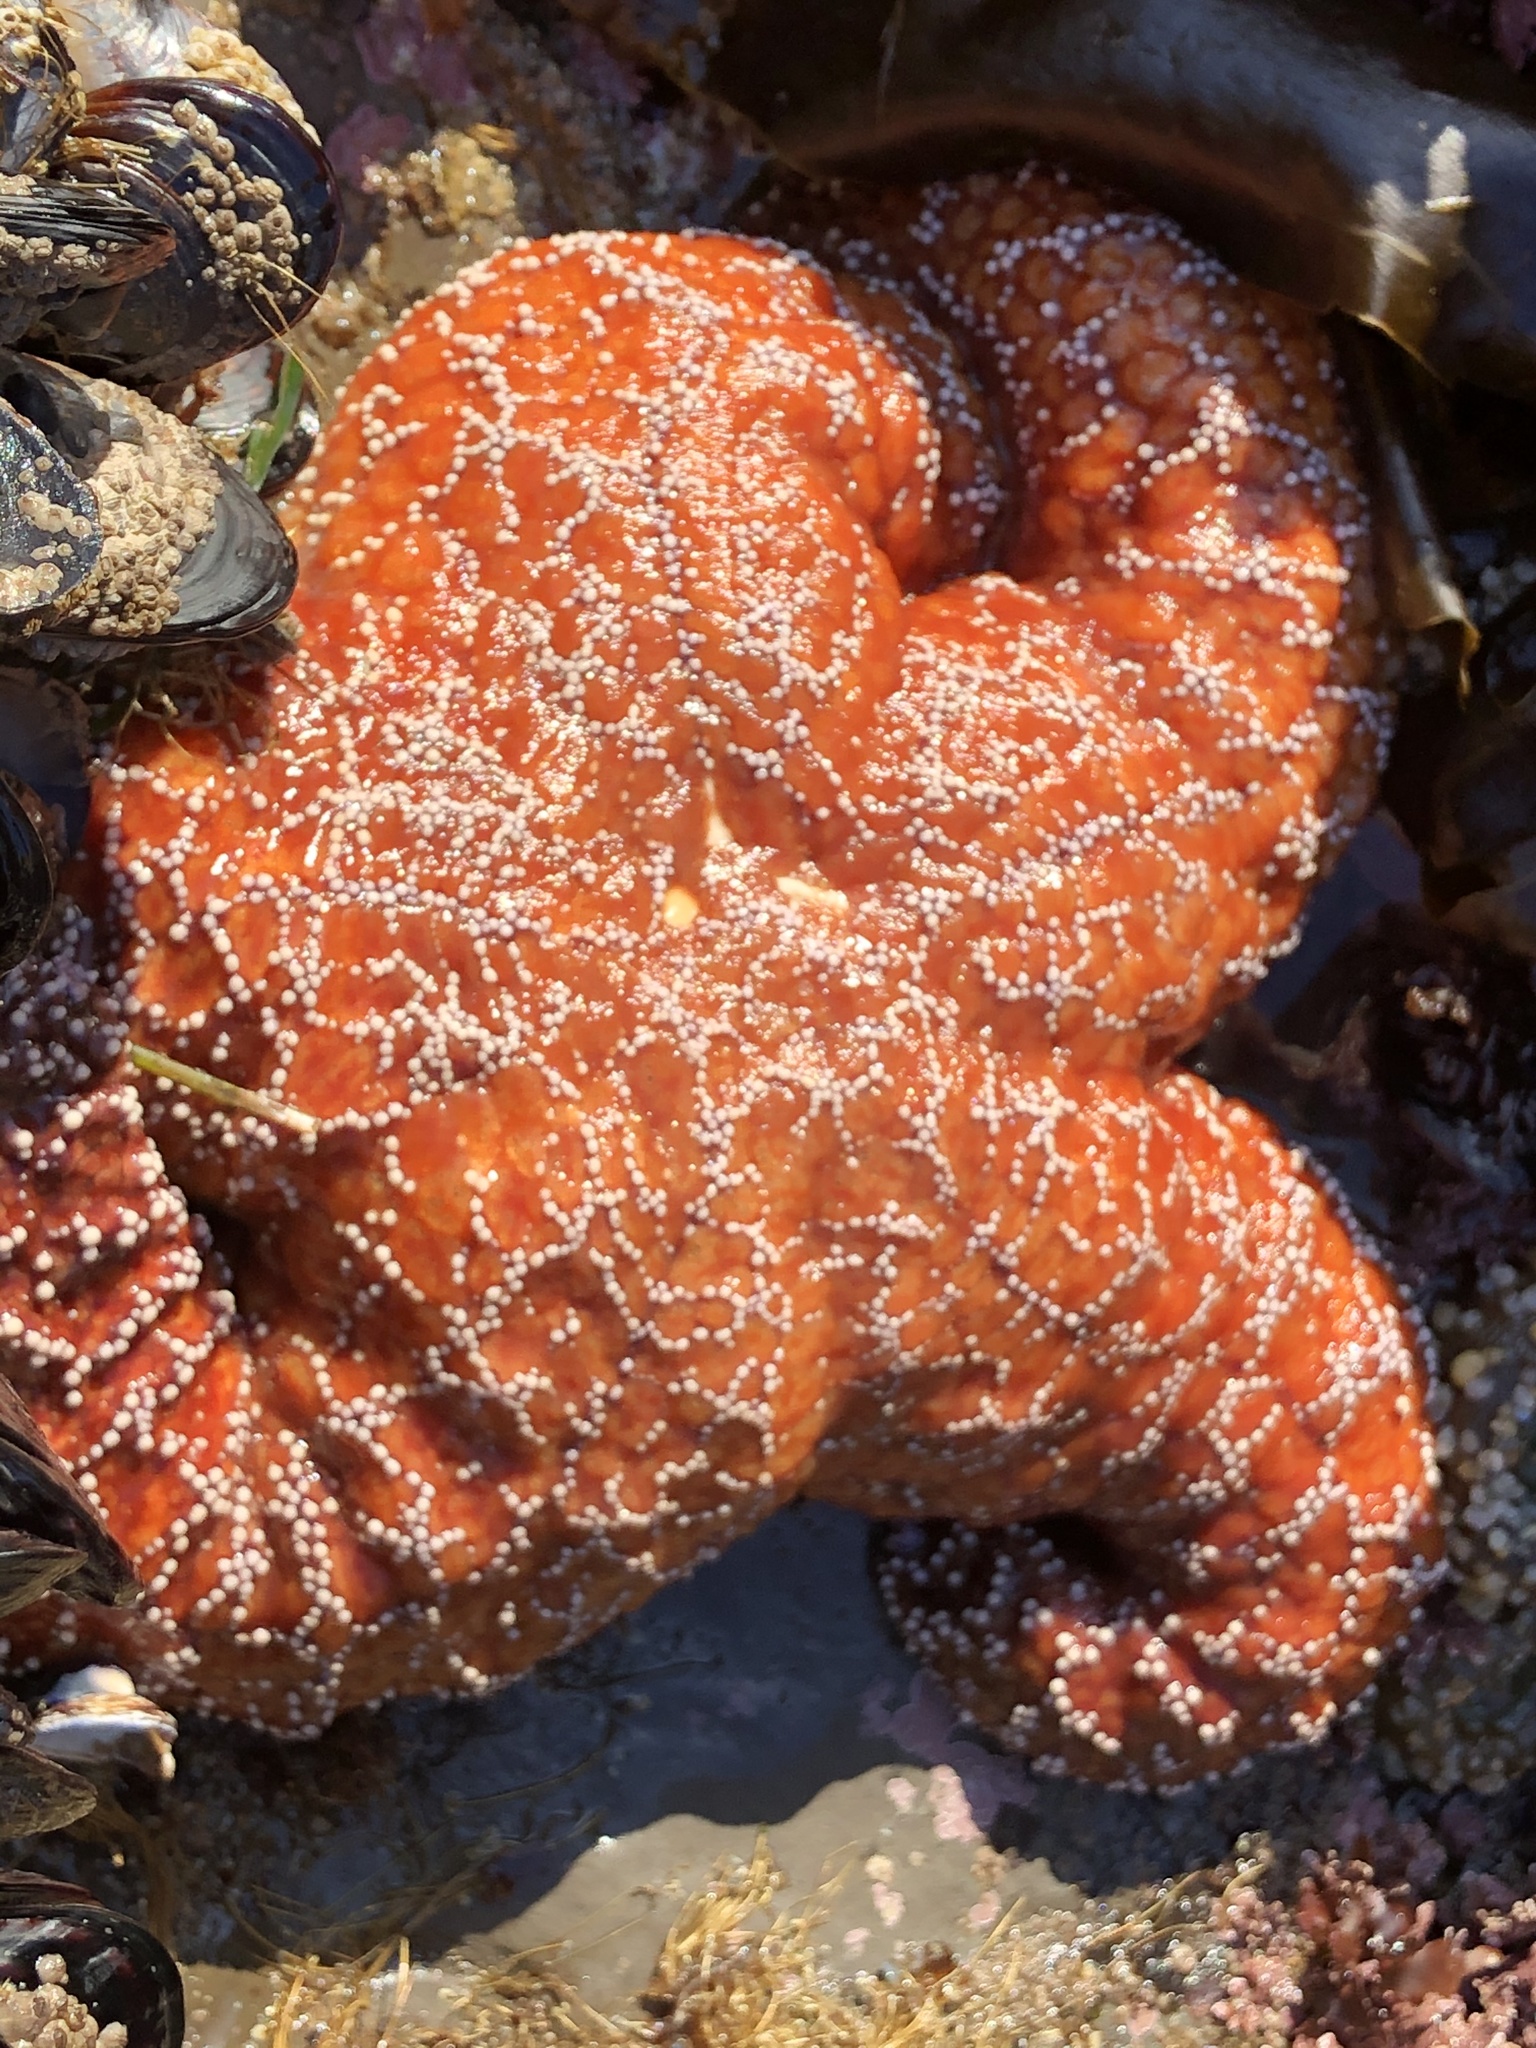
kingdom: Animalia
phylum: Echinodermata
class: Asteroidea
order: Forcipulatida
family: Asteriidae
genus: Pisaster
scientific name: Pisaster ochraceus
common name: Ochre stars
